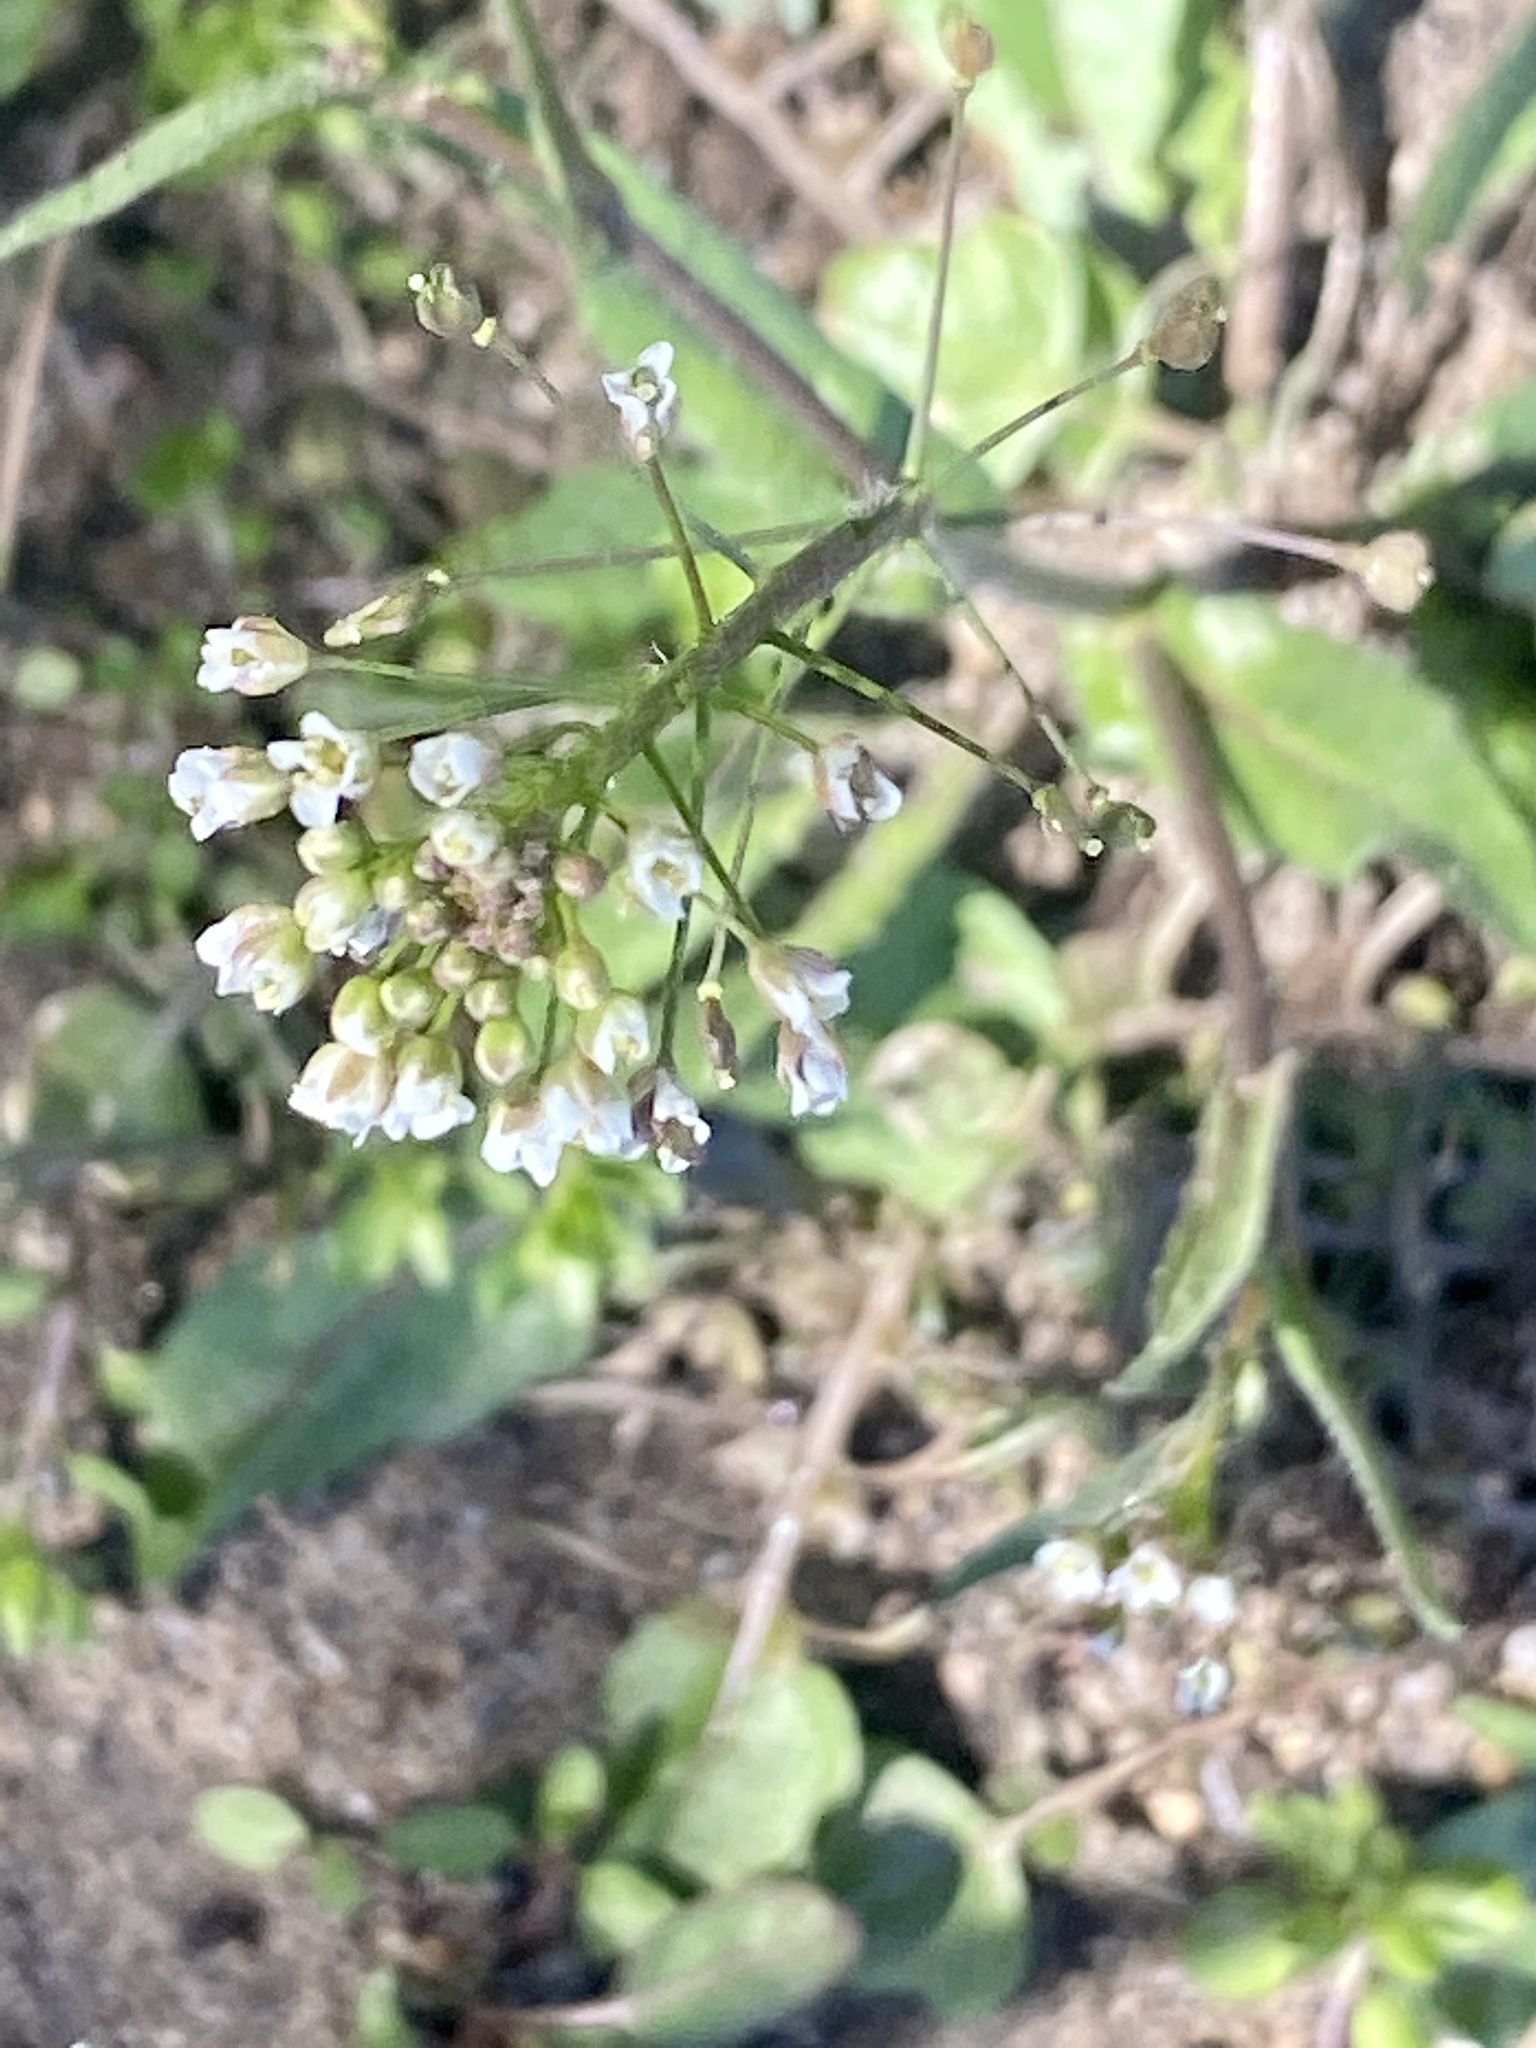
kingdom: Plantae
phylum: Tracheophyta
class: Magnoliopsida
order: Brassicales
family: Brassicaceae
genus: Capsella
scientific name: Capsella bursa-pastoris
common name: Shepherd's purse
